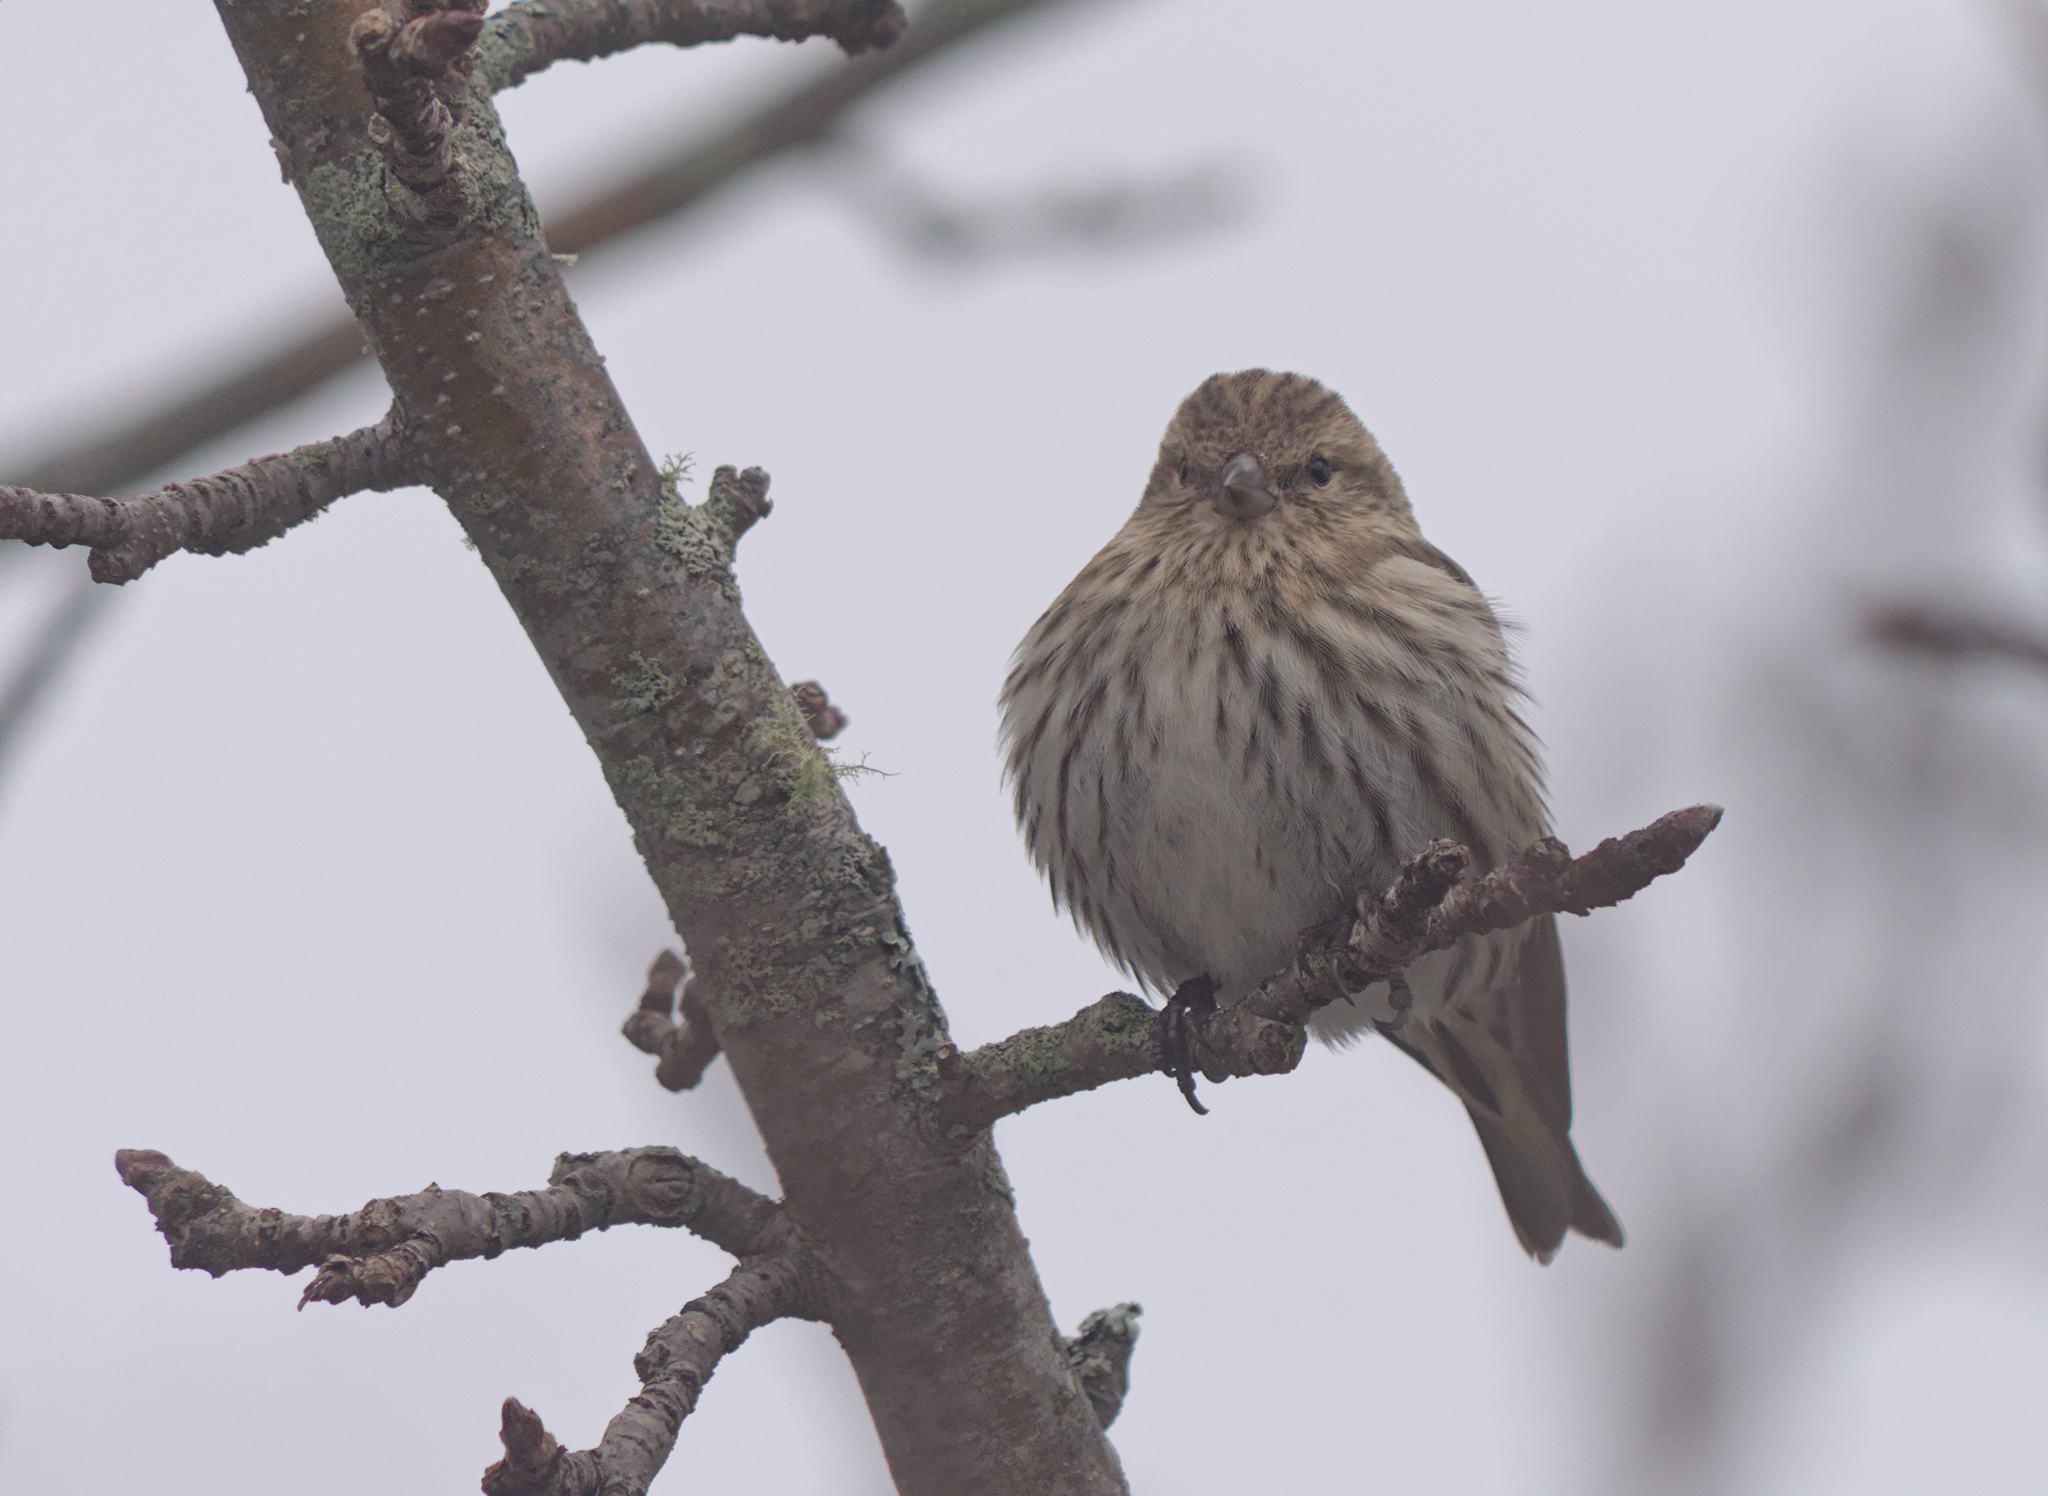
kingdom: Animalia
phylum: Chordata
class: Aves
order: Passeriformes
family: Fringillidae
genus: Spinus
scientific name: Spinus pinus
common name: Pine siskin
